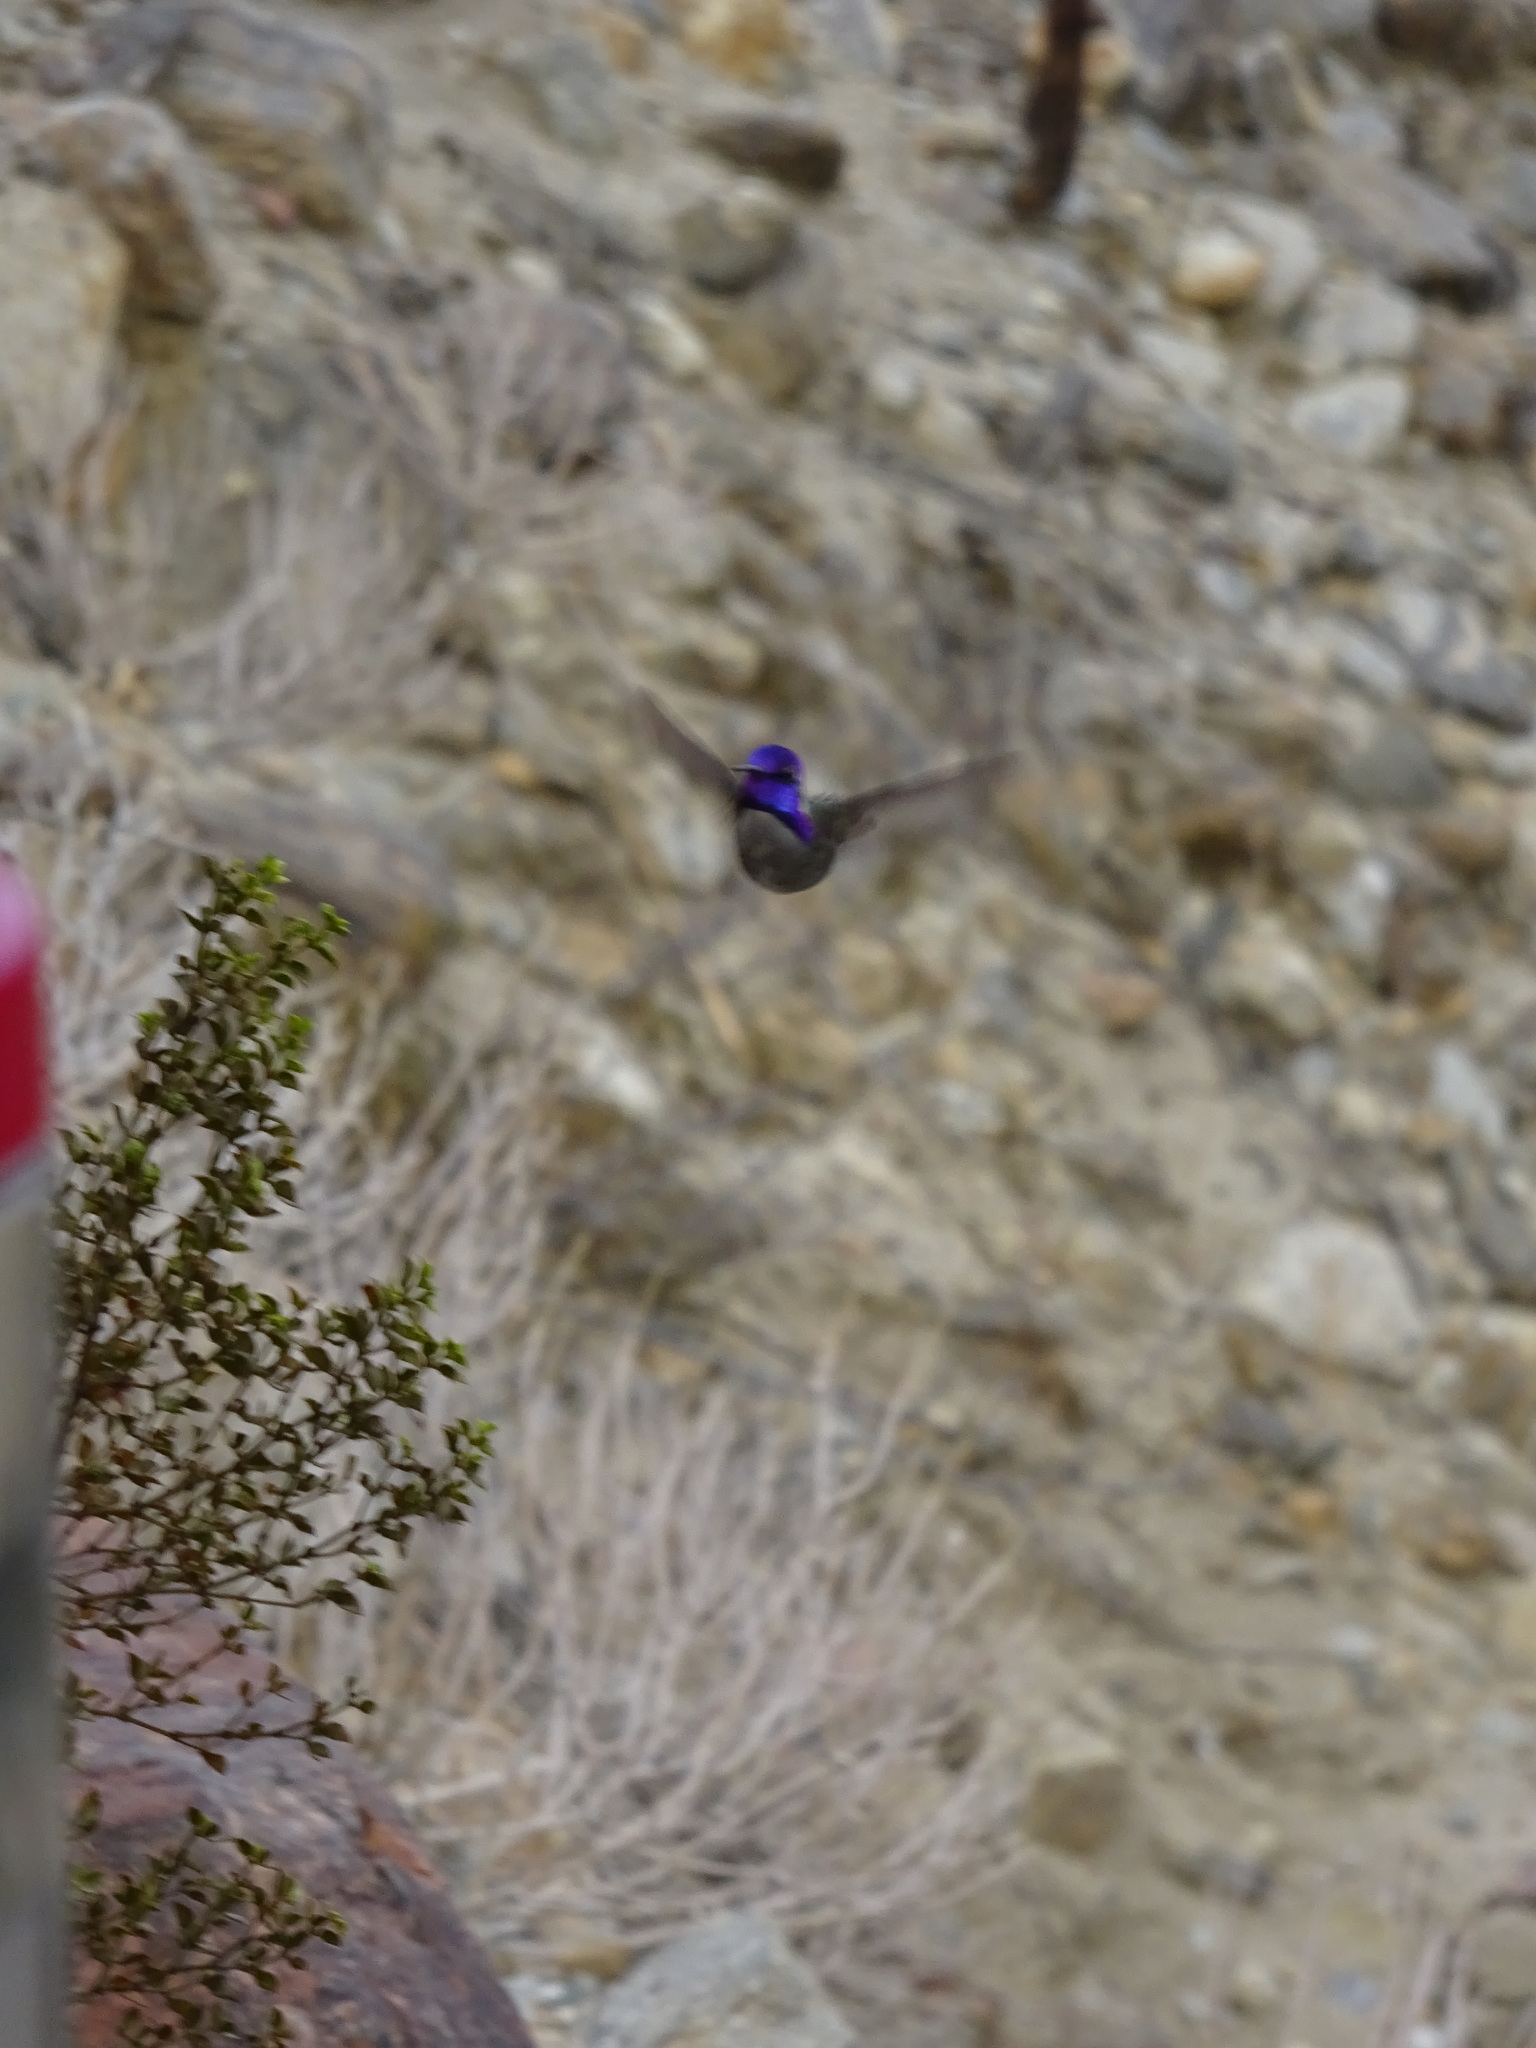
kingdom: Animalia
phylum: Chordata
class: Aves
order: Apodiformes
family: Trochilidae
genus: Calypte
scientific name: Calypte costae
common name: Costa's hummingbird
